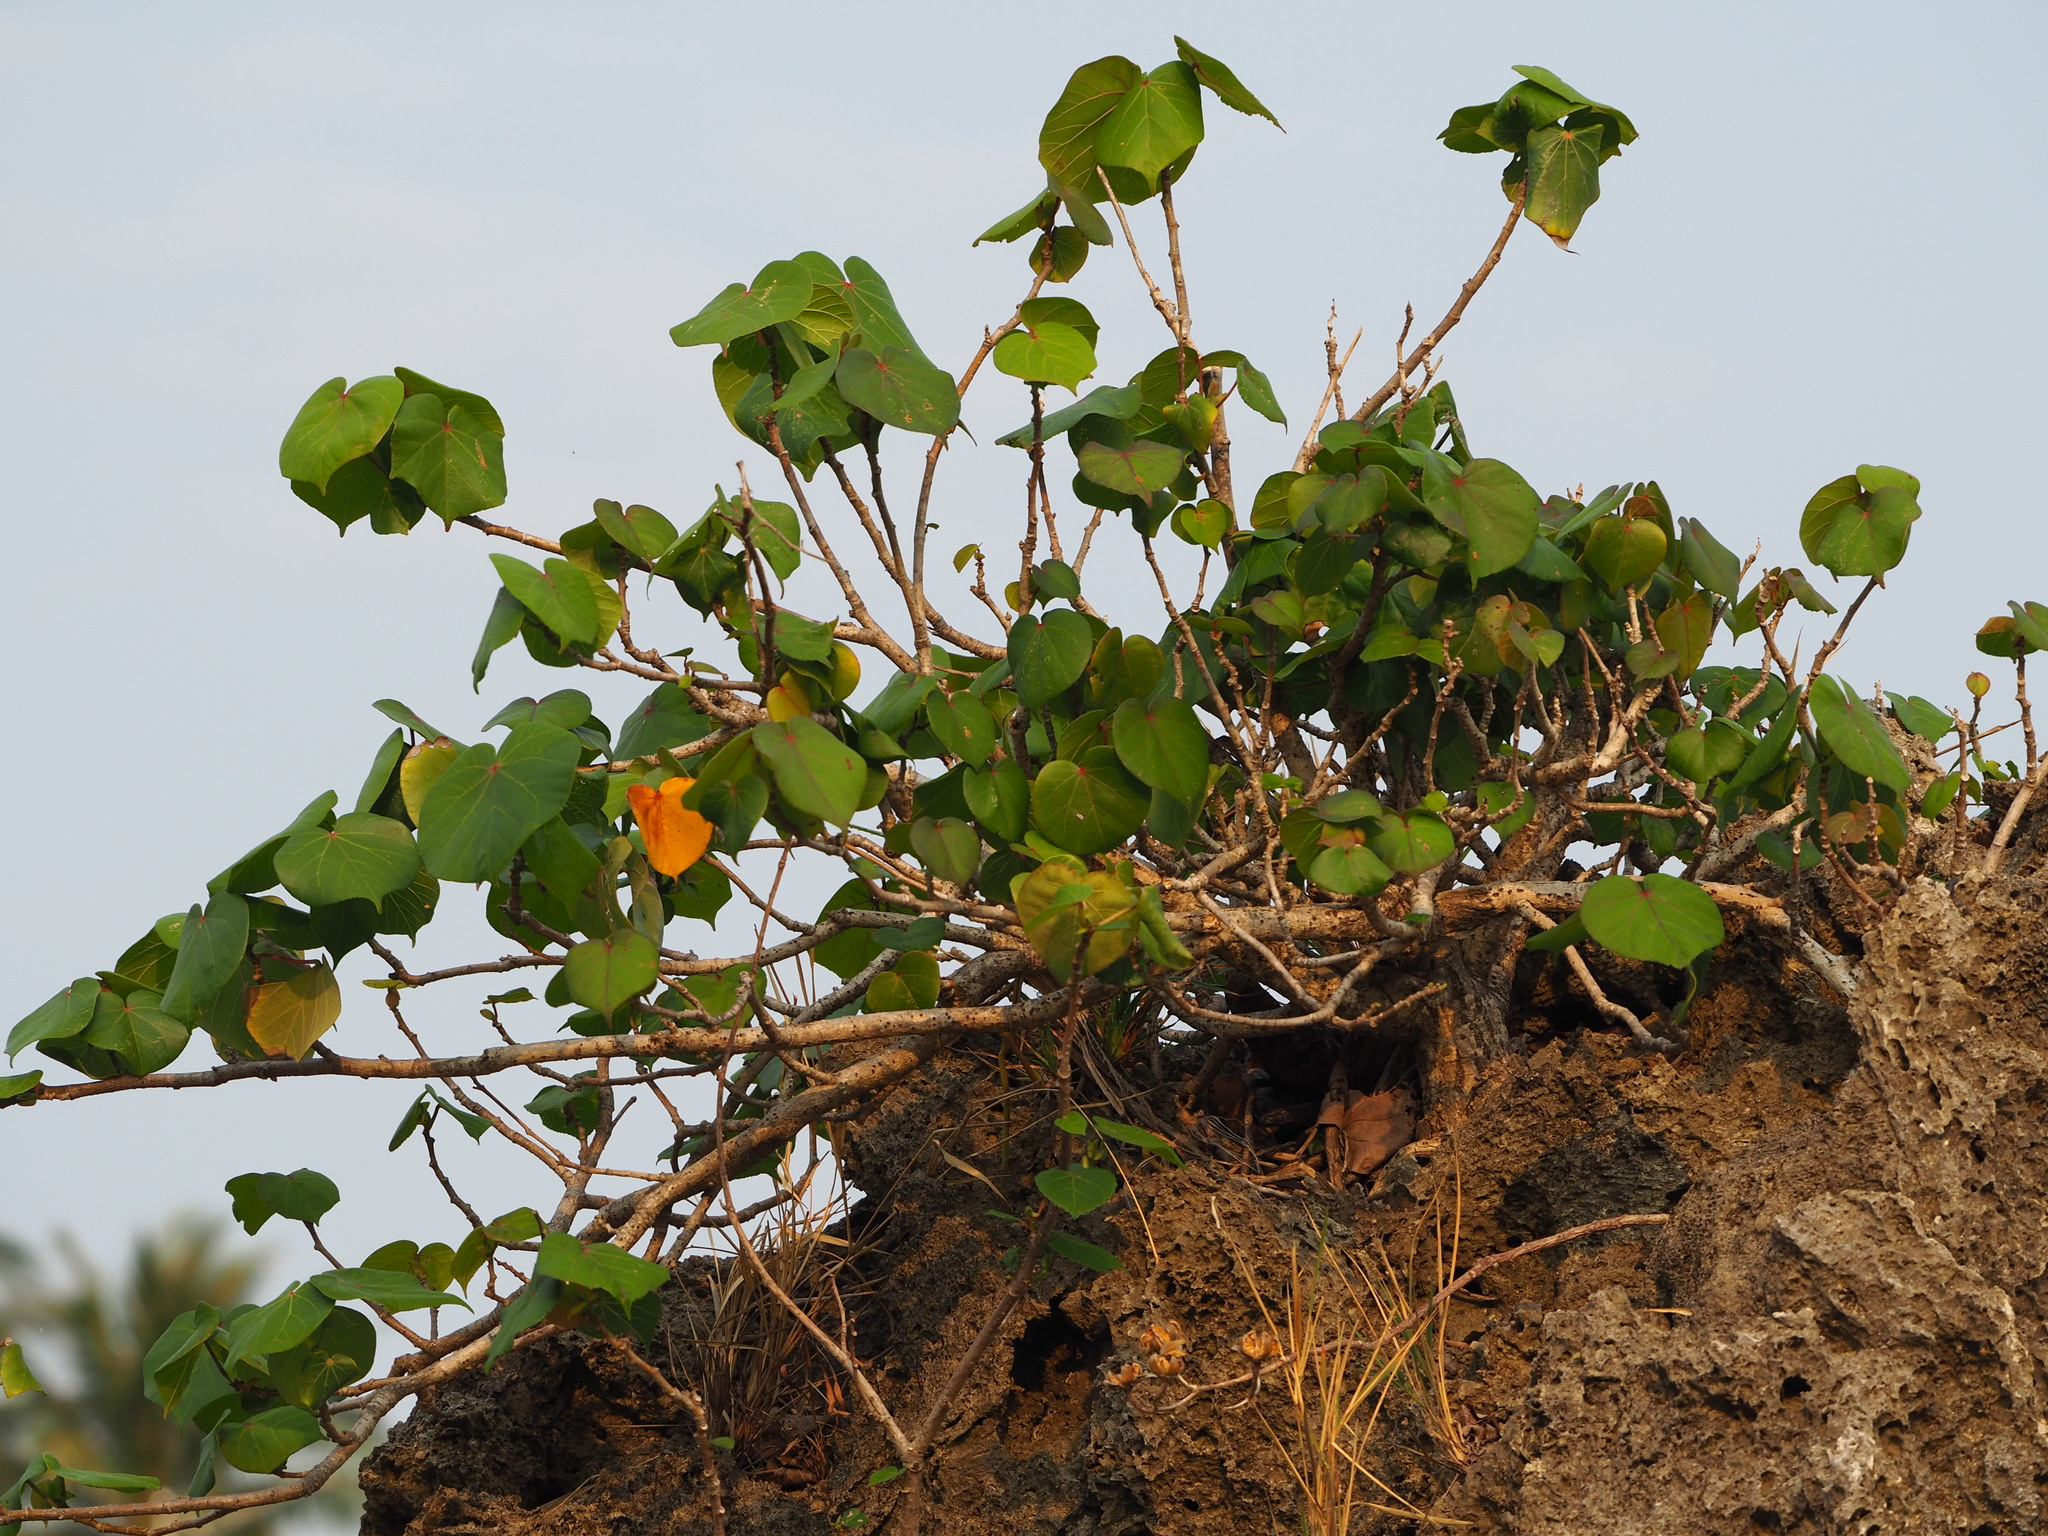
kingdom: Plantae
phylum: Tracheophyta
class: Magnoliopsida
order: Malvales
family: Malvaceae
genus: Talipariti
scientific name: Talipariti tiliaceum
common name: Sea hibiscus
